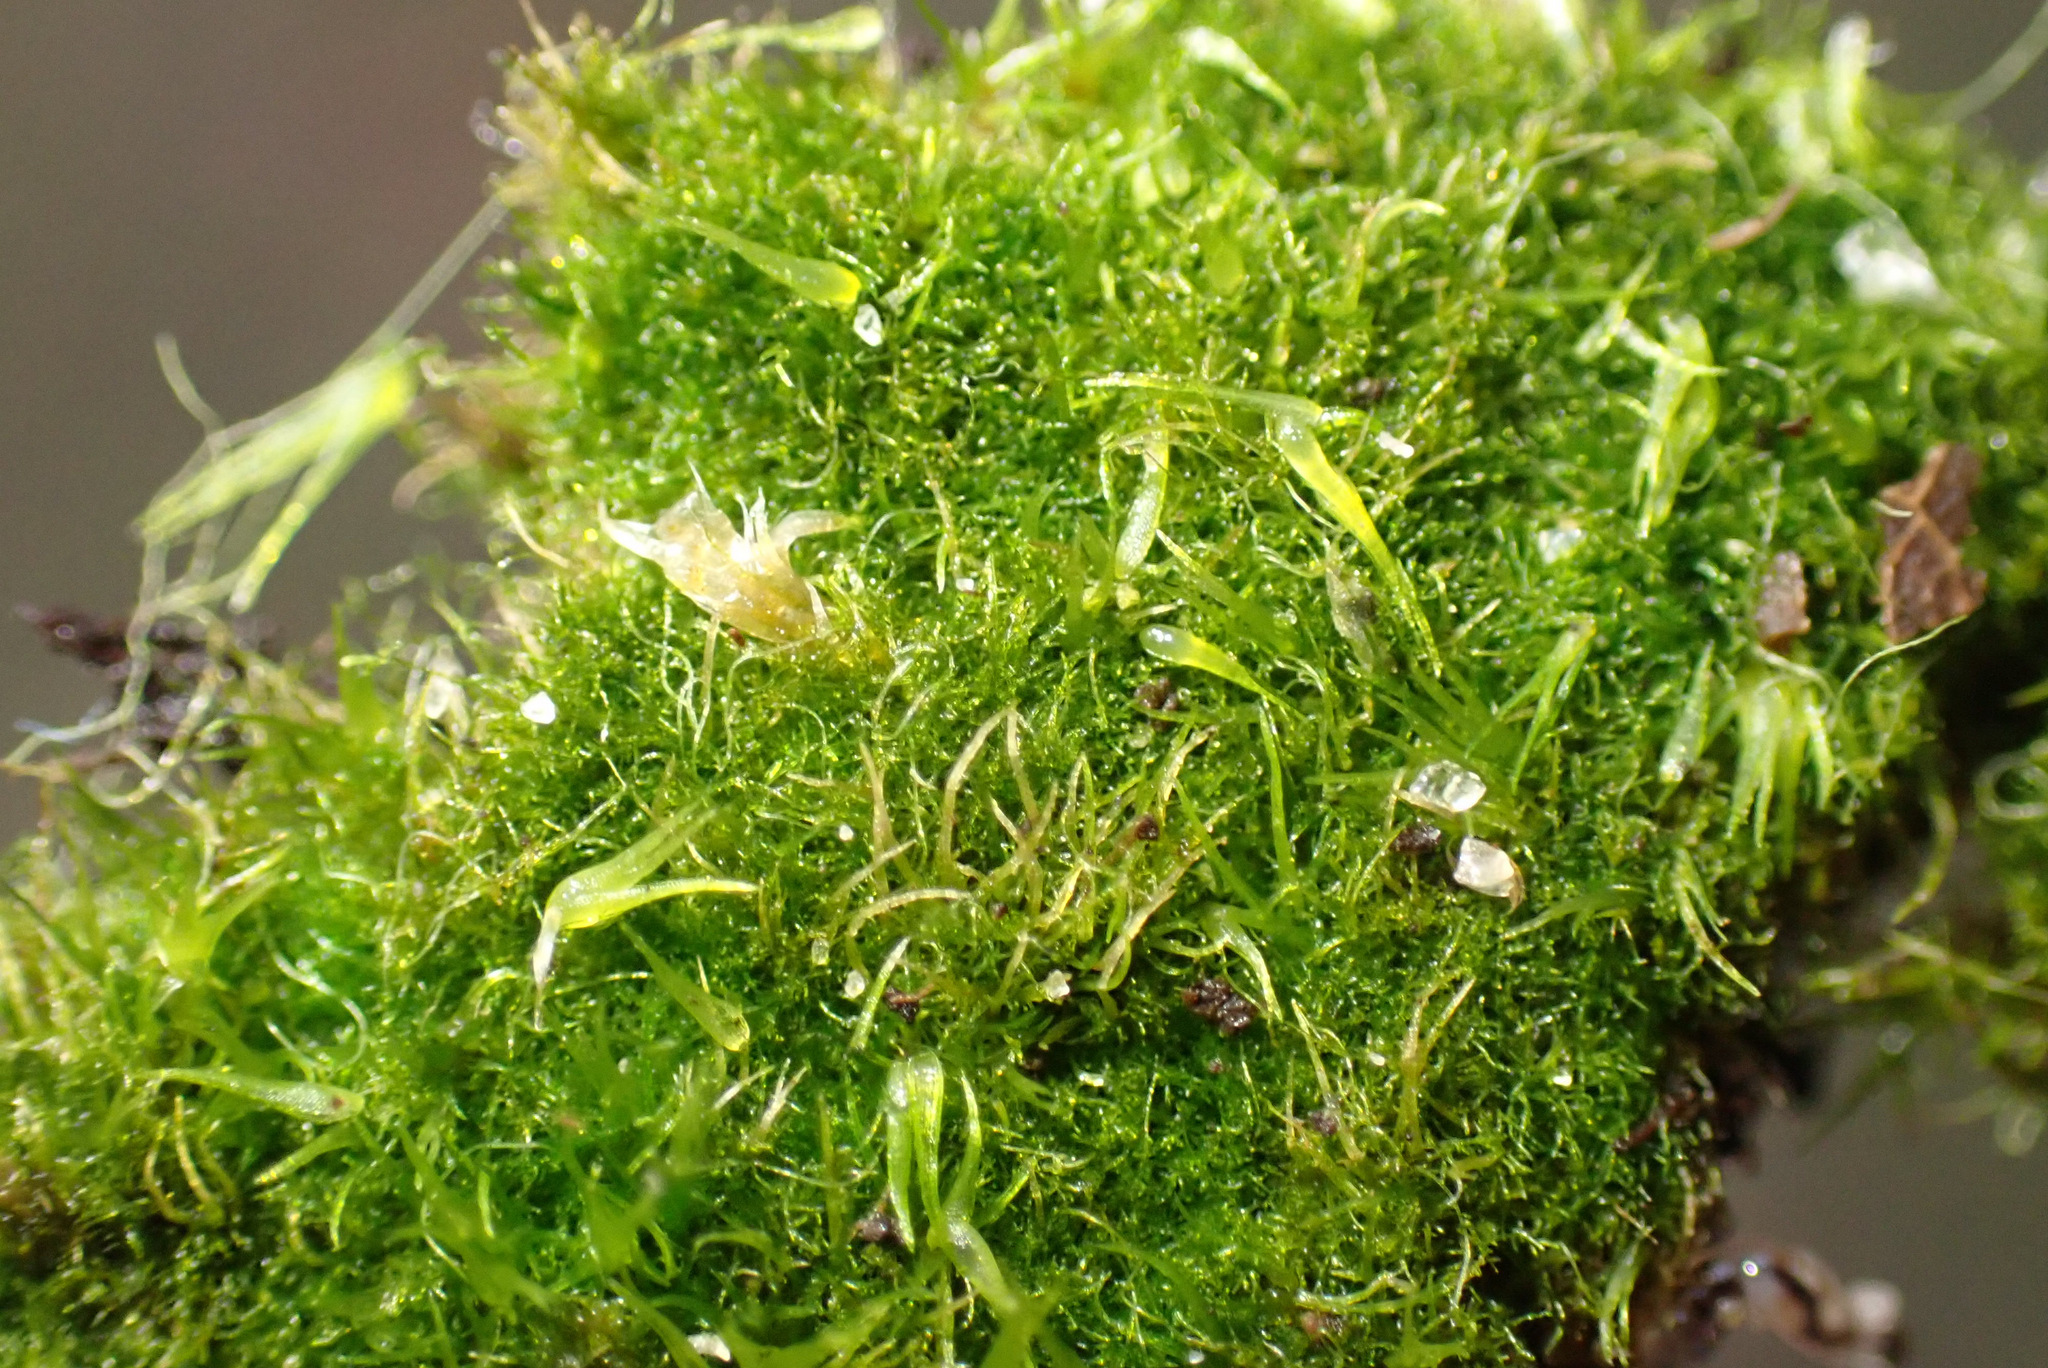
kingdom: Plantae
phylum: Bryophyta
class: Bryopsida
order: Dicranales
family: Leucobryaceae
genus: Campylopus
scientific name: Campylopus pyriformis
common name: Dwarf swan-neck moss
